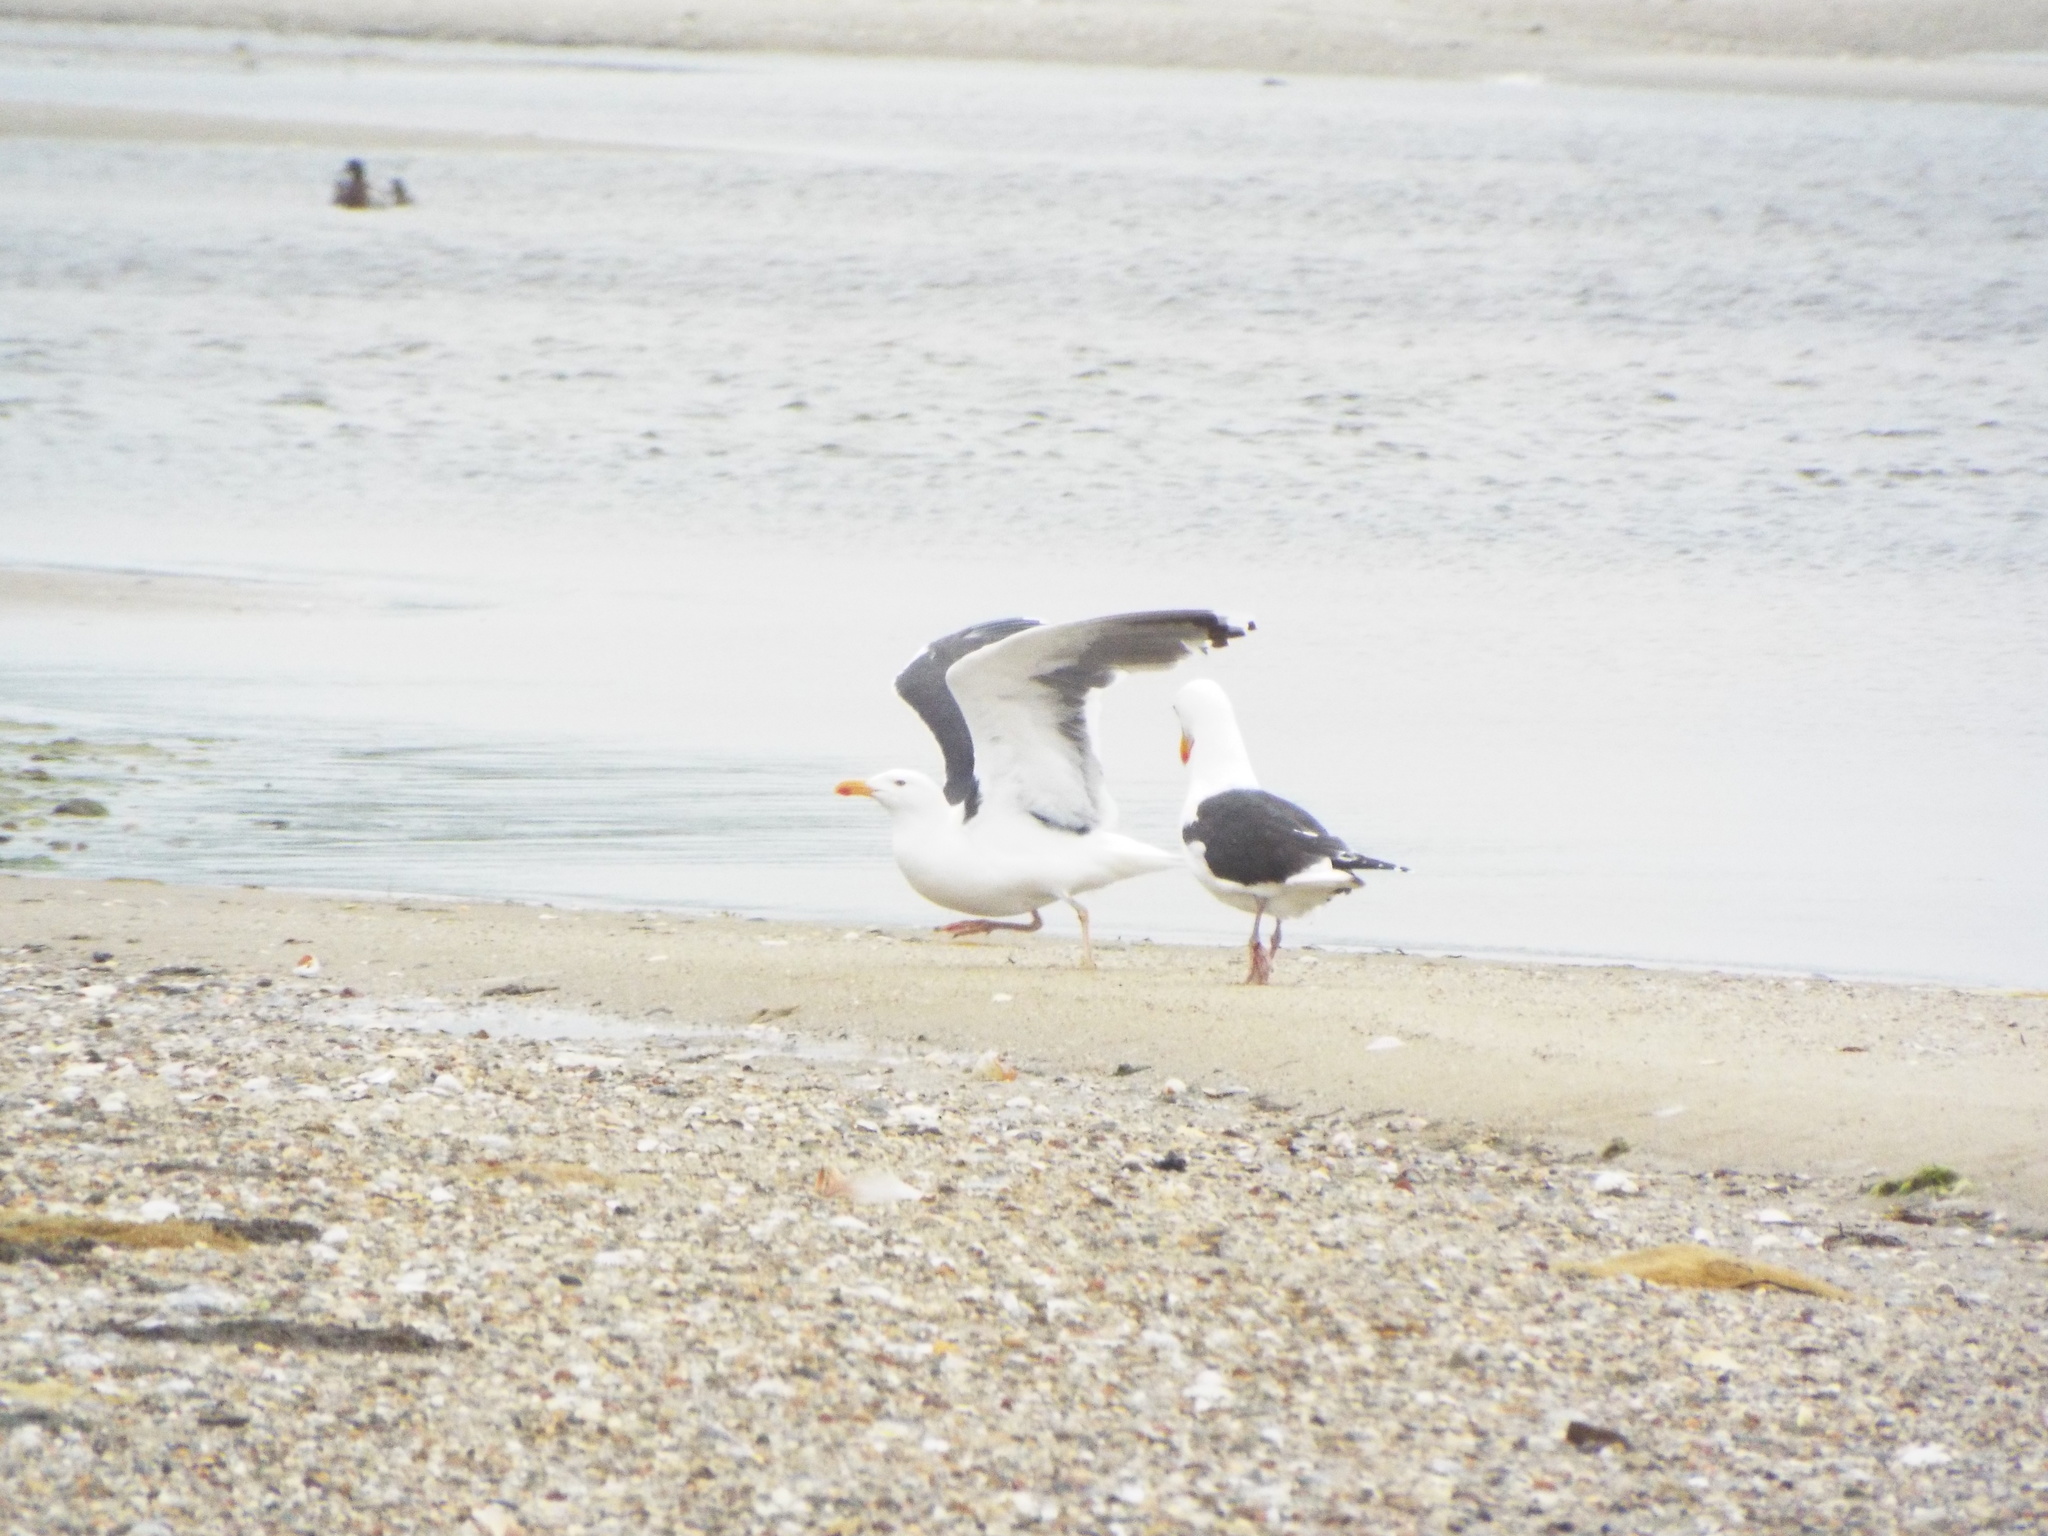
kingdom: Animalia
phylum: Chordata
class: Aves
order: Charadriiformes
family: Laridae
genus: Larus
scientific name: Larus marinus
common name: Great black-backed gull
